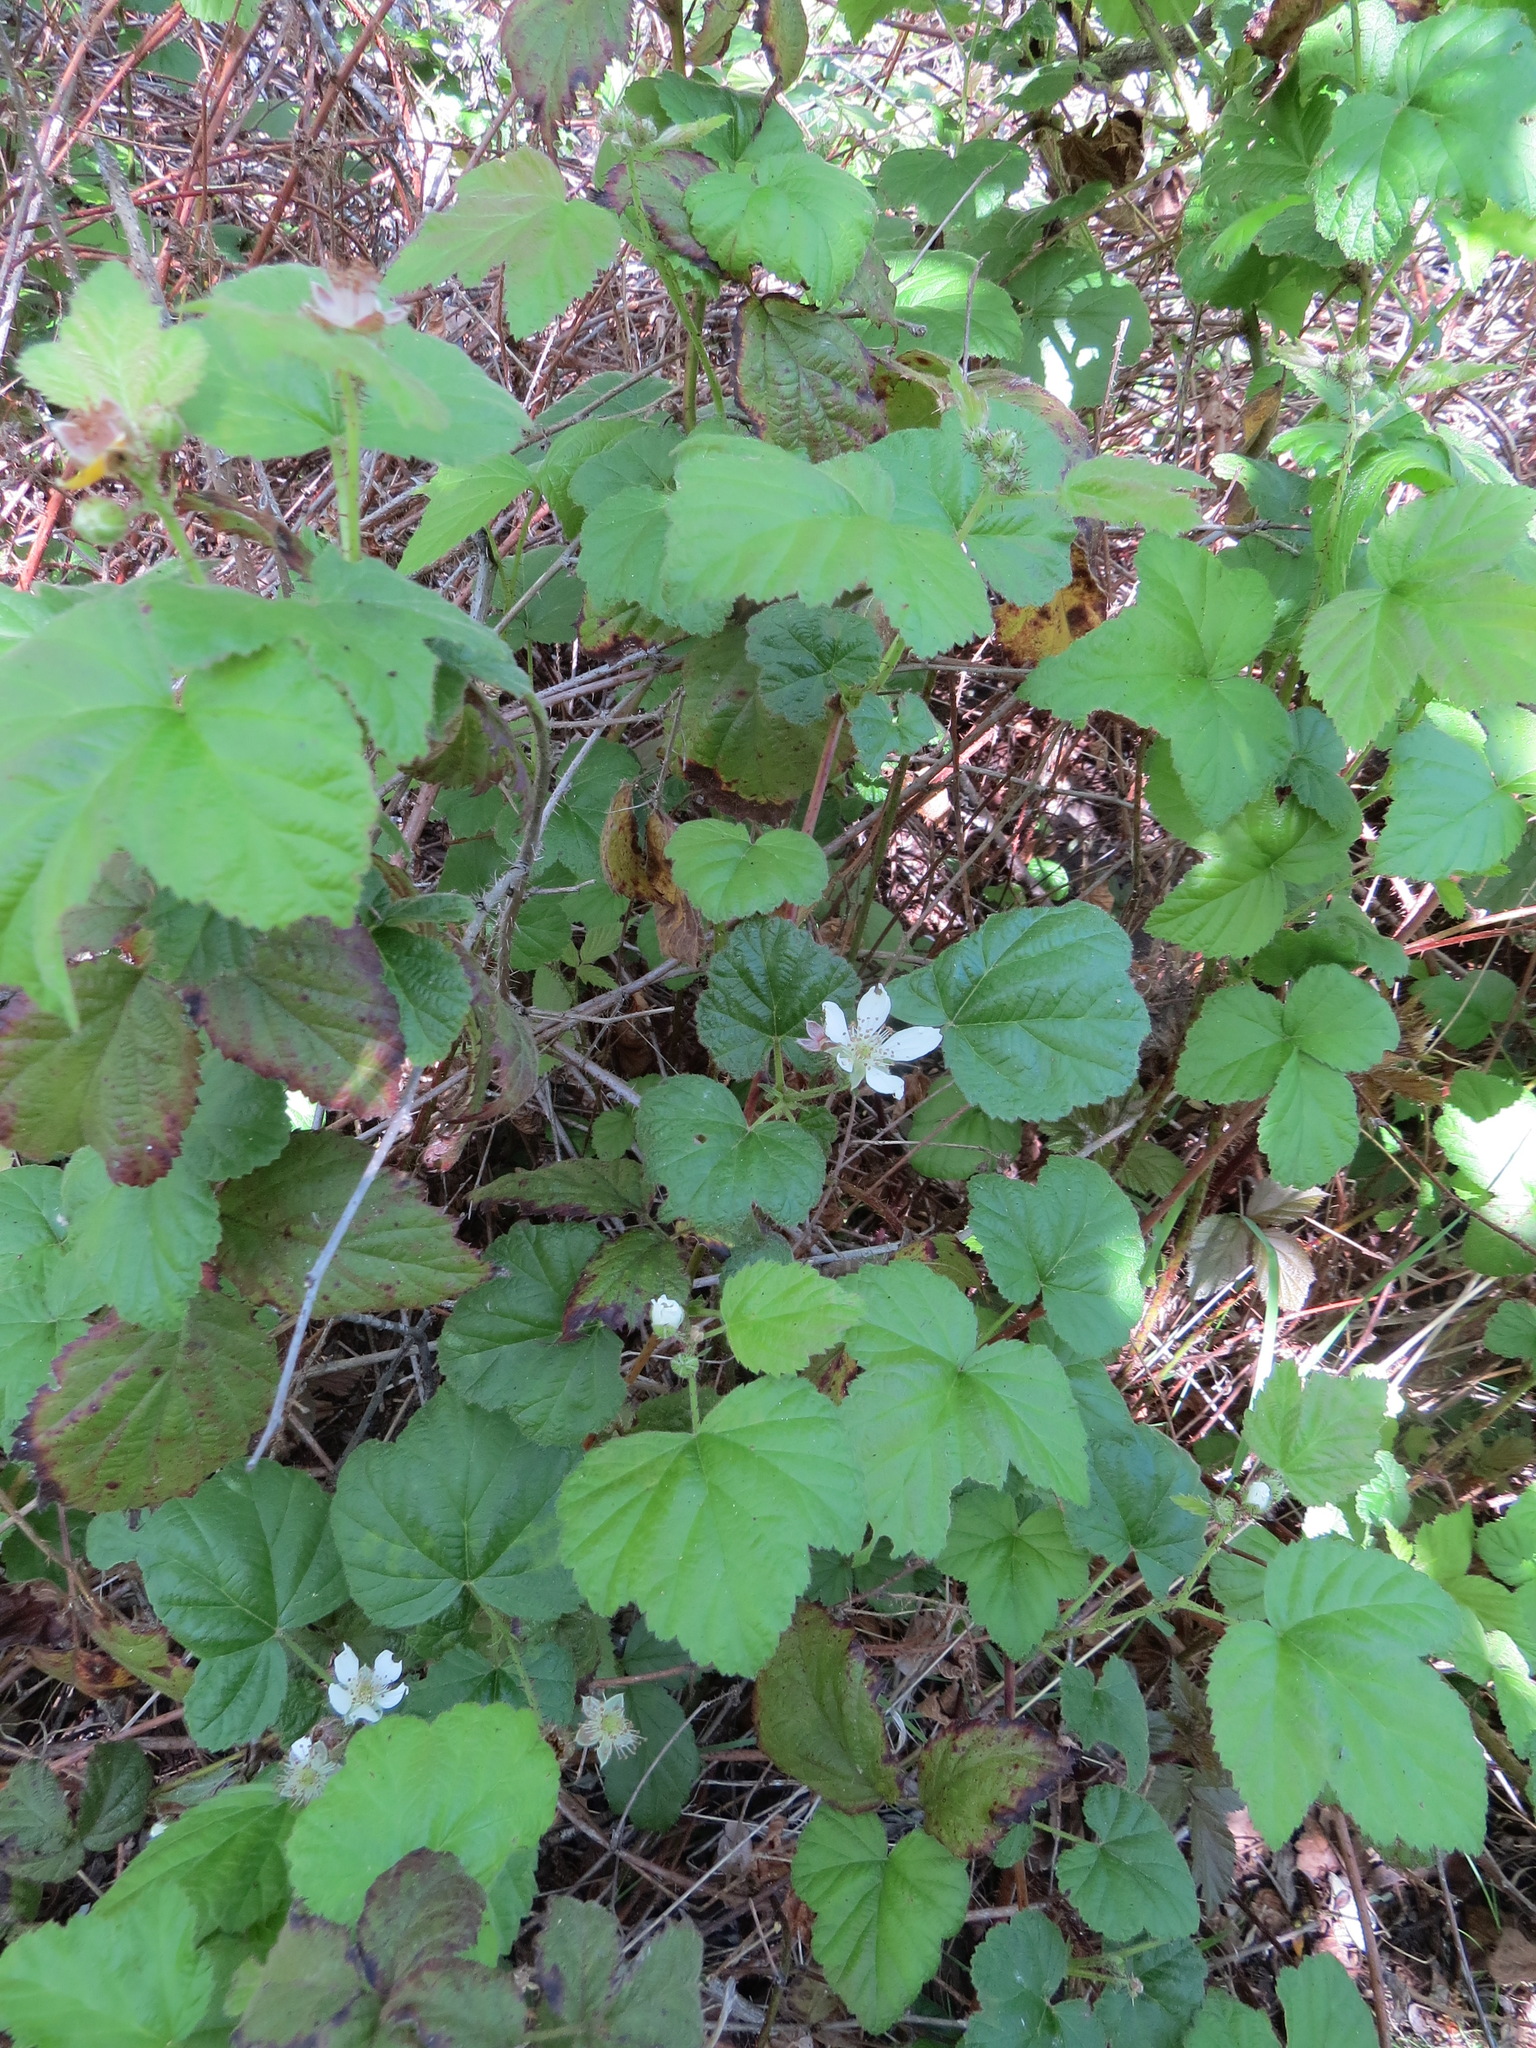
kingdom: Plantae
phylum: Tracheophyta
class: Magnoliopsida
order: Rosales
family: Rosaceae
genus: Rubus
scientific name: Rubus ursinus
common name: Pacific blackberry
